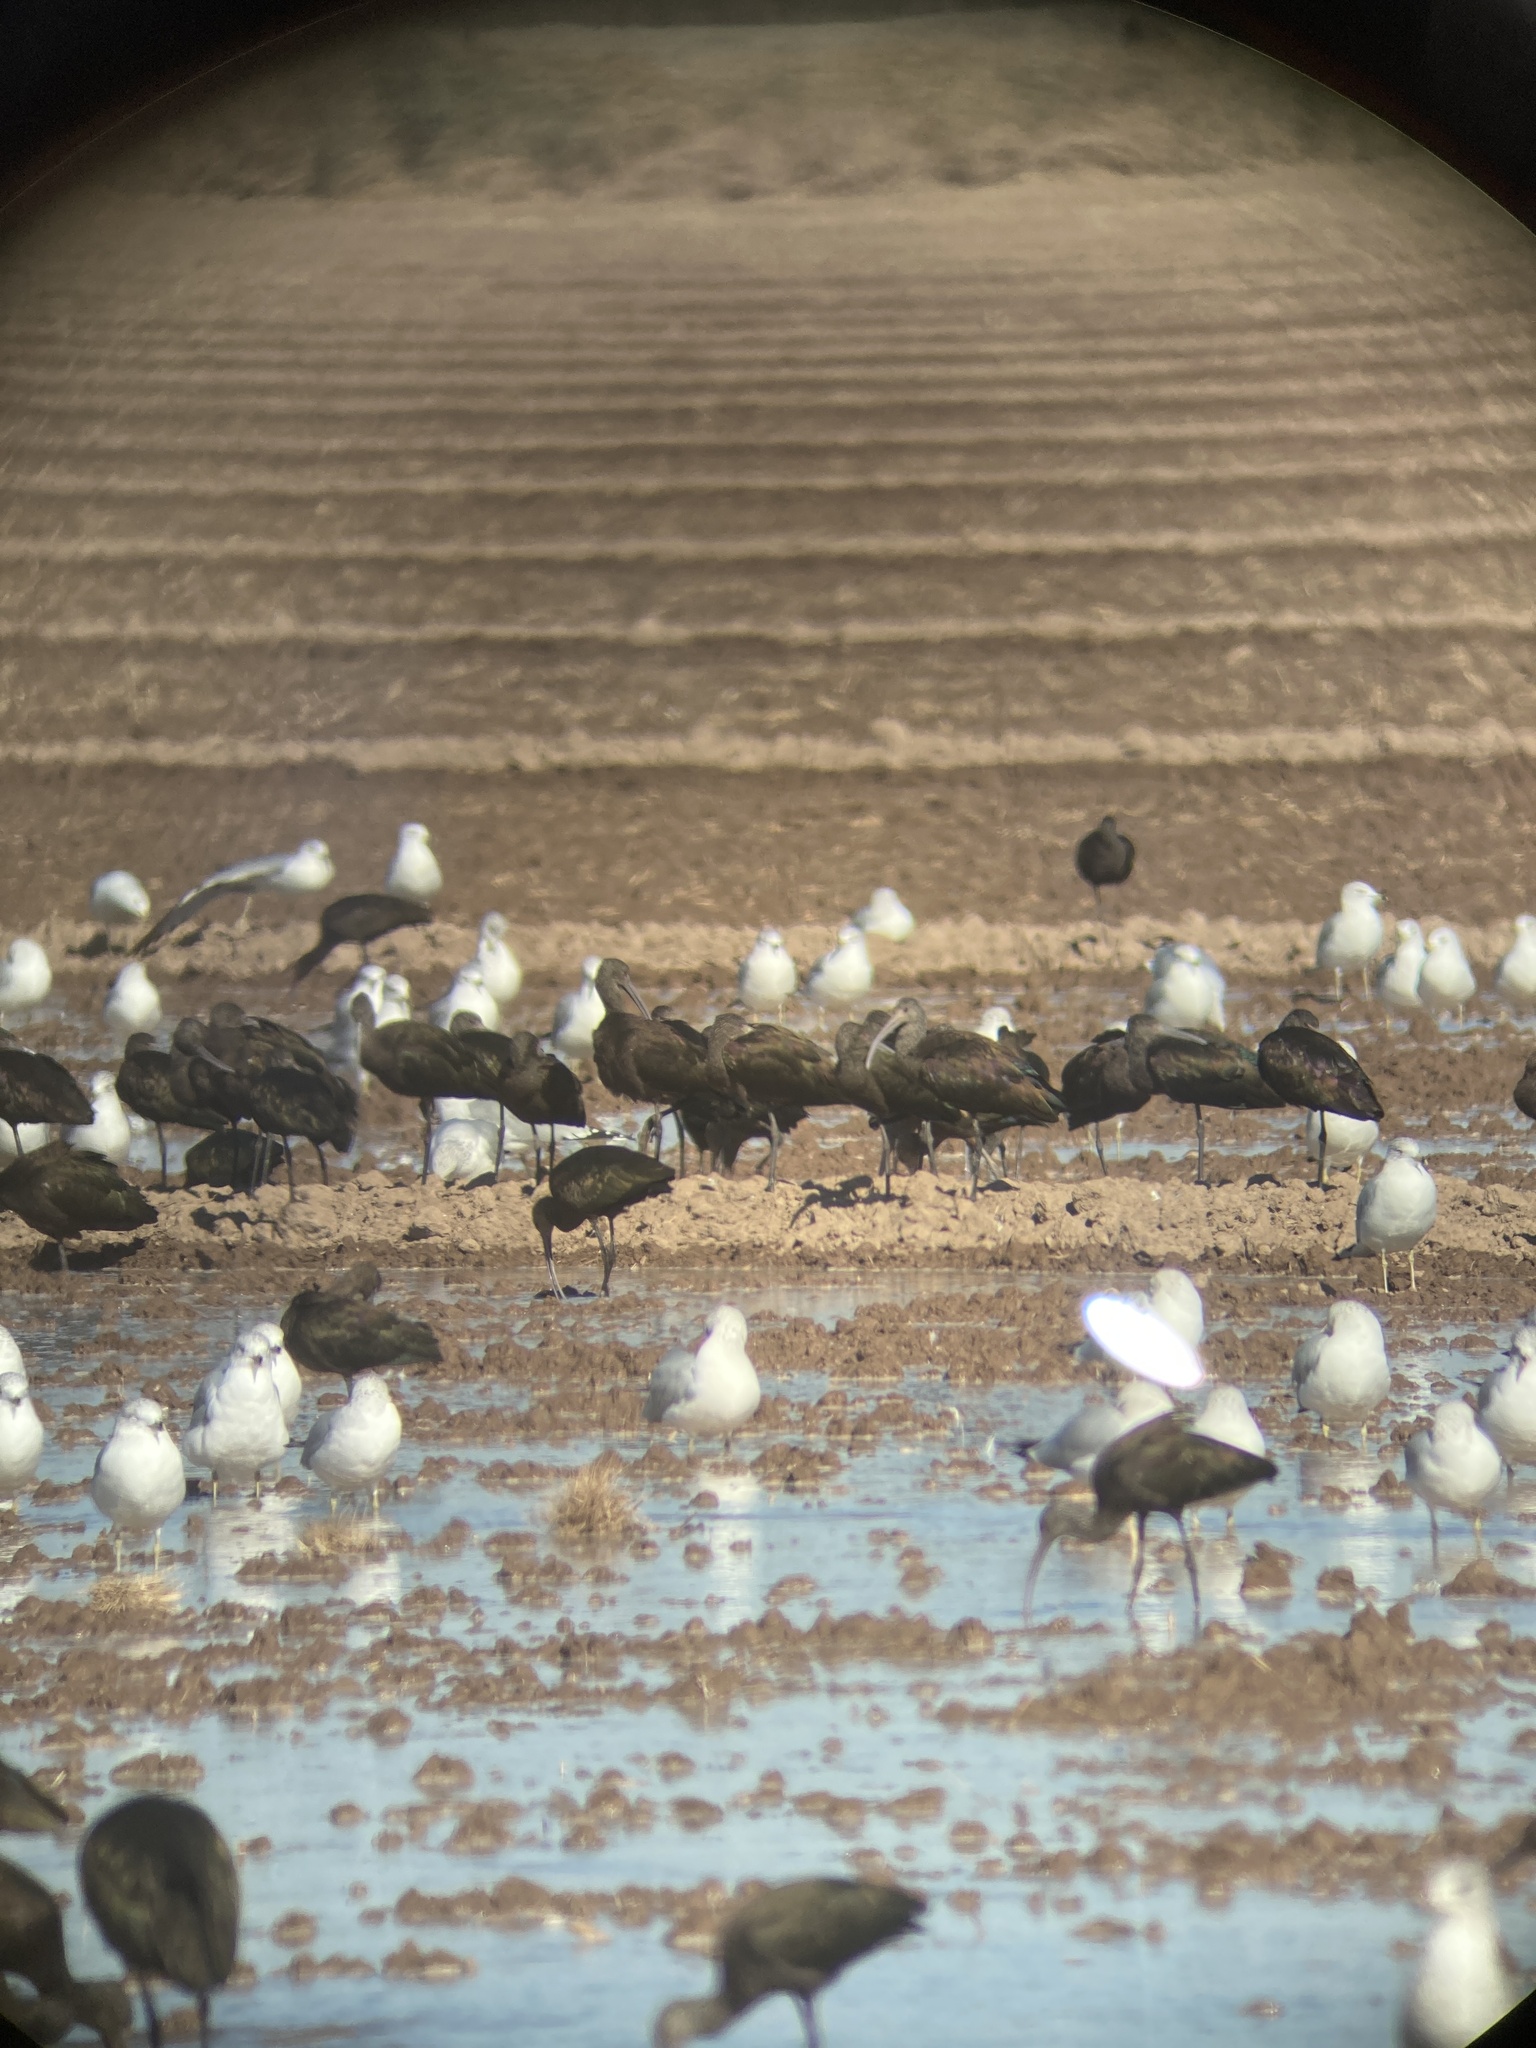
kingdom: Animalia
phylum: Chordata
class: Aves
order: Pelecaniformes
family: Threskiornithidae
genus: Plegadis
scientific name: Plegadis chihi
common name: White-faced ibis
